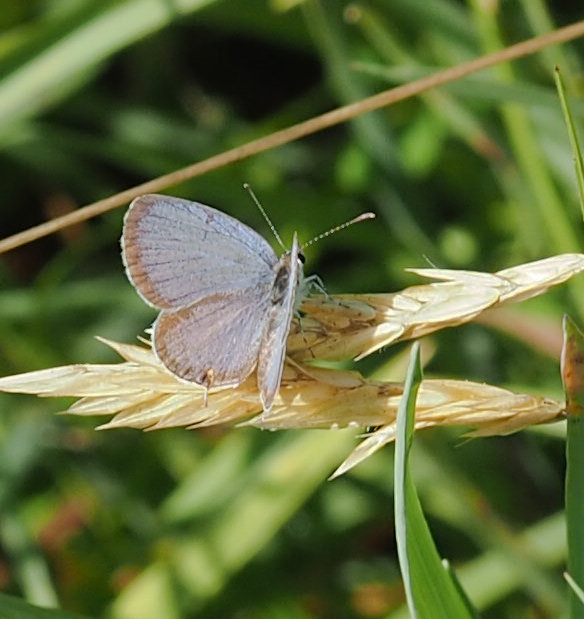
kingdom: Animalia
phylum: Arthropoda
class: Insecta
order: Lepidoptera
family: Lycaenidae
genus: Elkalyce
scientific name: Elkalyce comyntas
